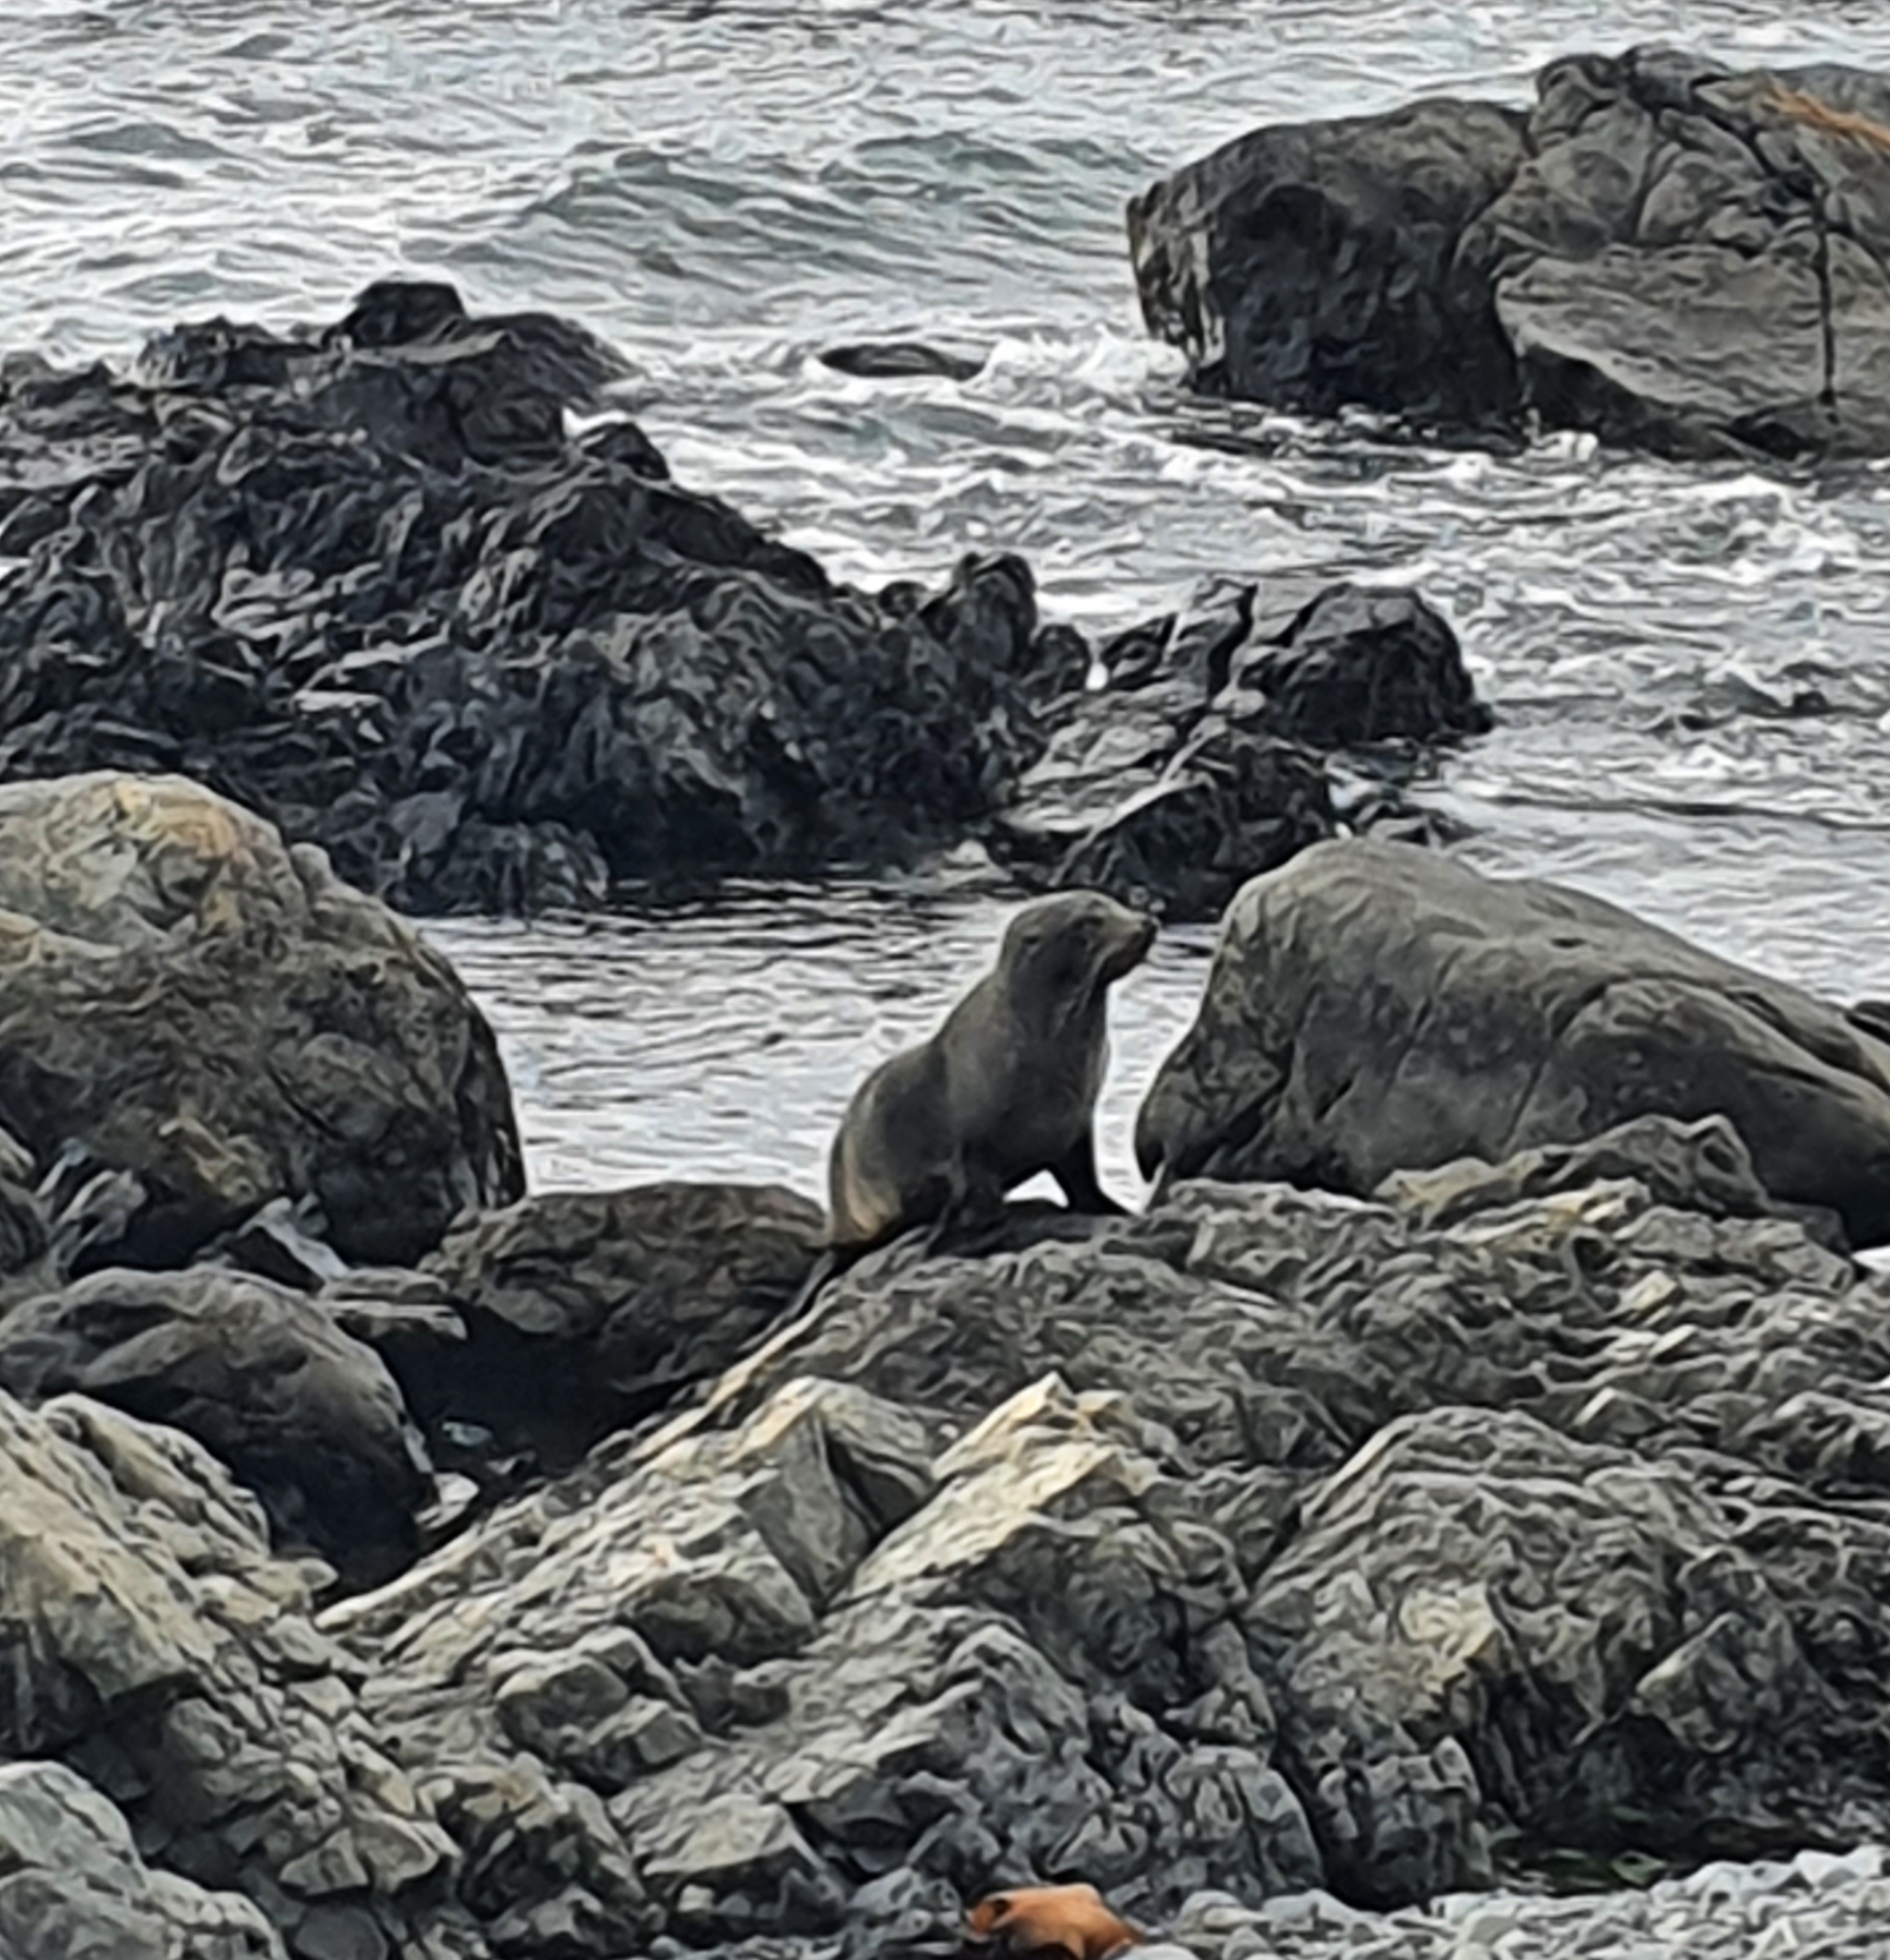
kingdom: Animalia
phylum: Chordata
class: Mammalia
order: Carnivora
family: Otariidae
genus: Arctocephalus
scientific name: Arctocephalus forsteri
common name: New zealand fur seal
